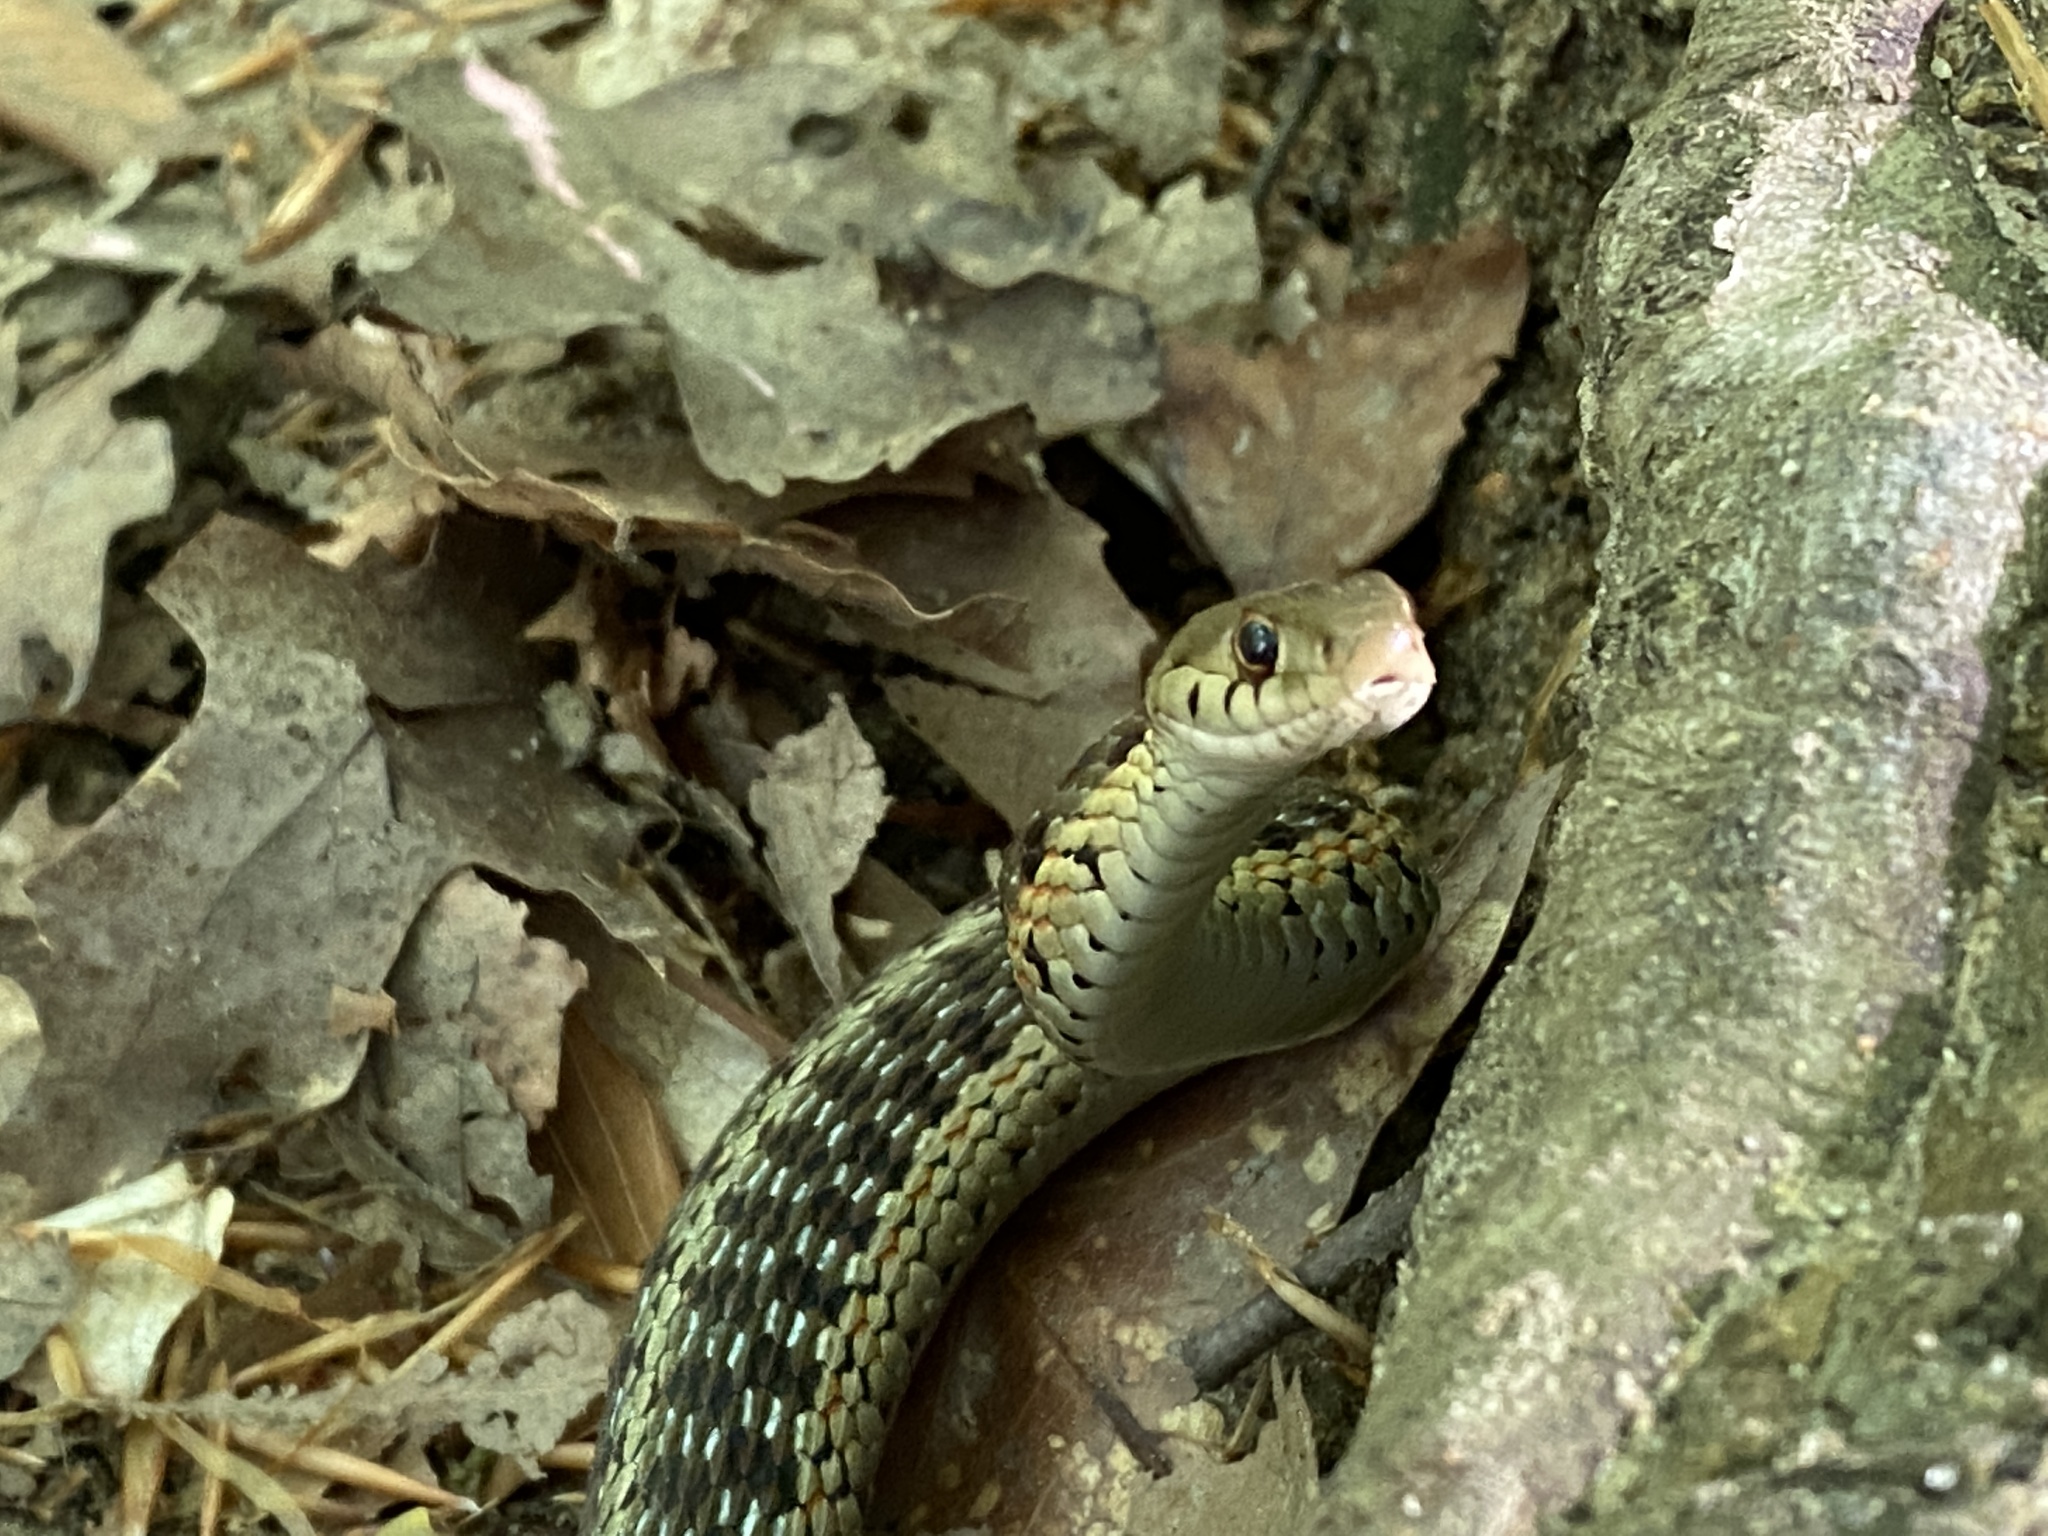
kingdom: Animalia
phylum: Chordata
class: Squamata
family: Colubridae
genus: Thamnophis
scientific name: Thamnophis sirtalis
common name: Common garter snake
